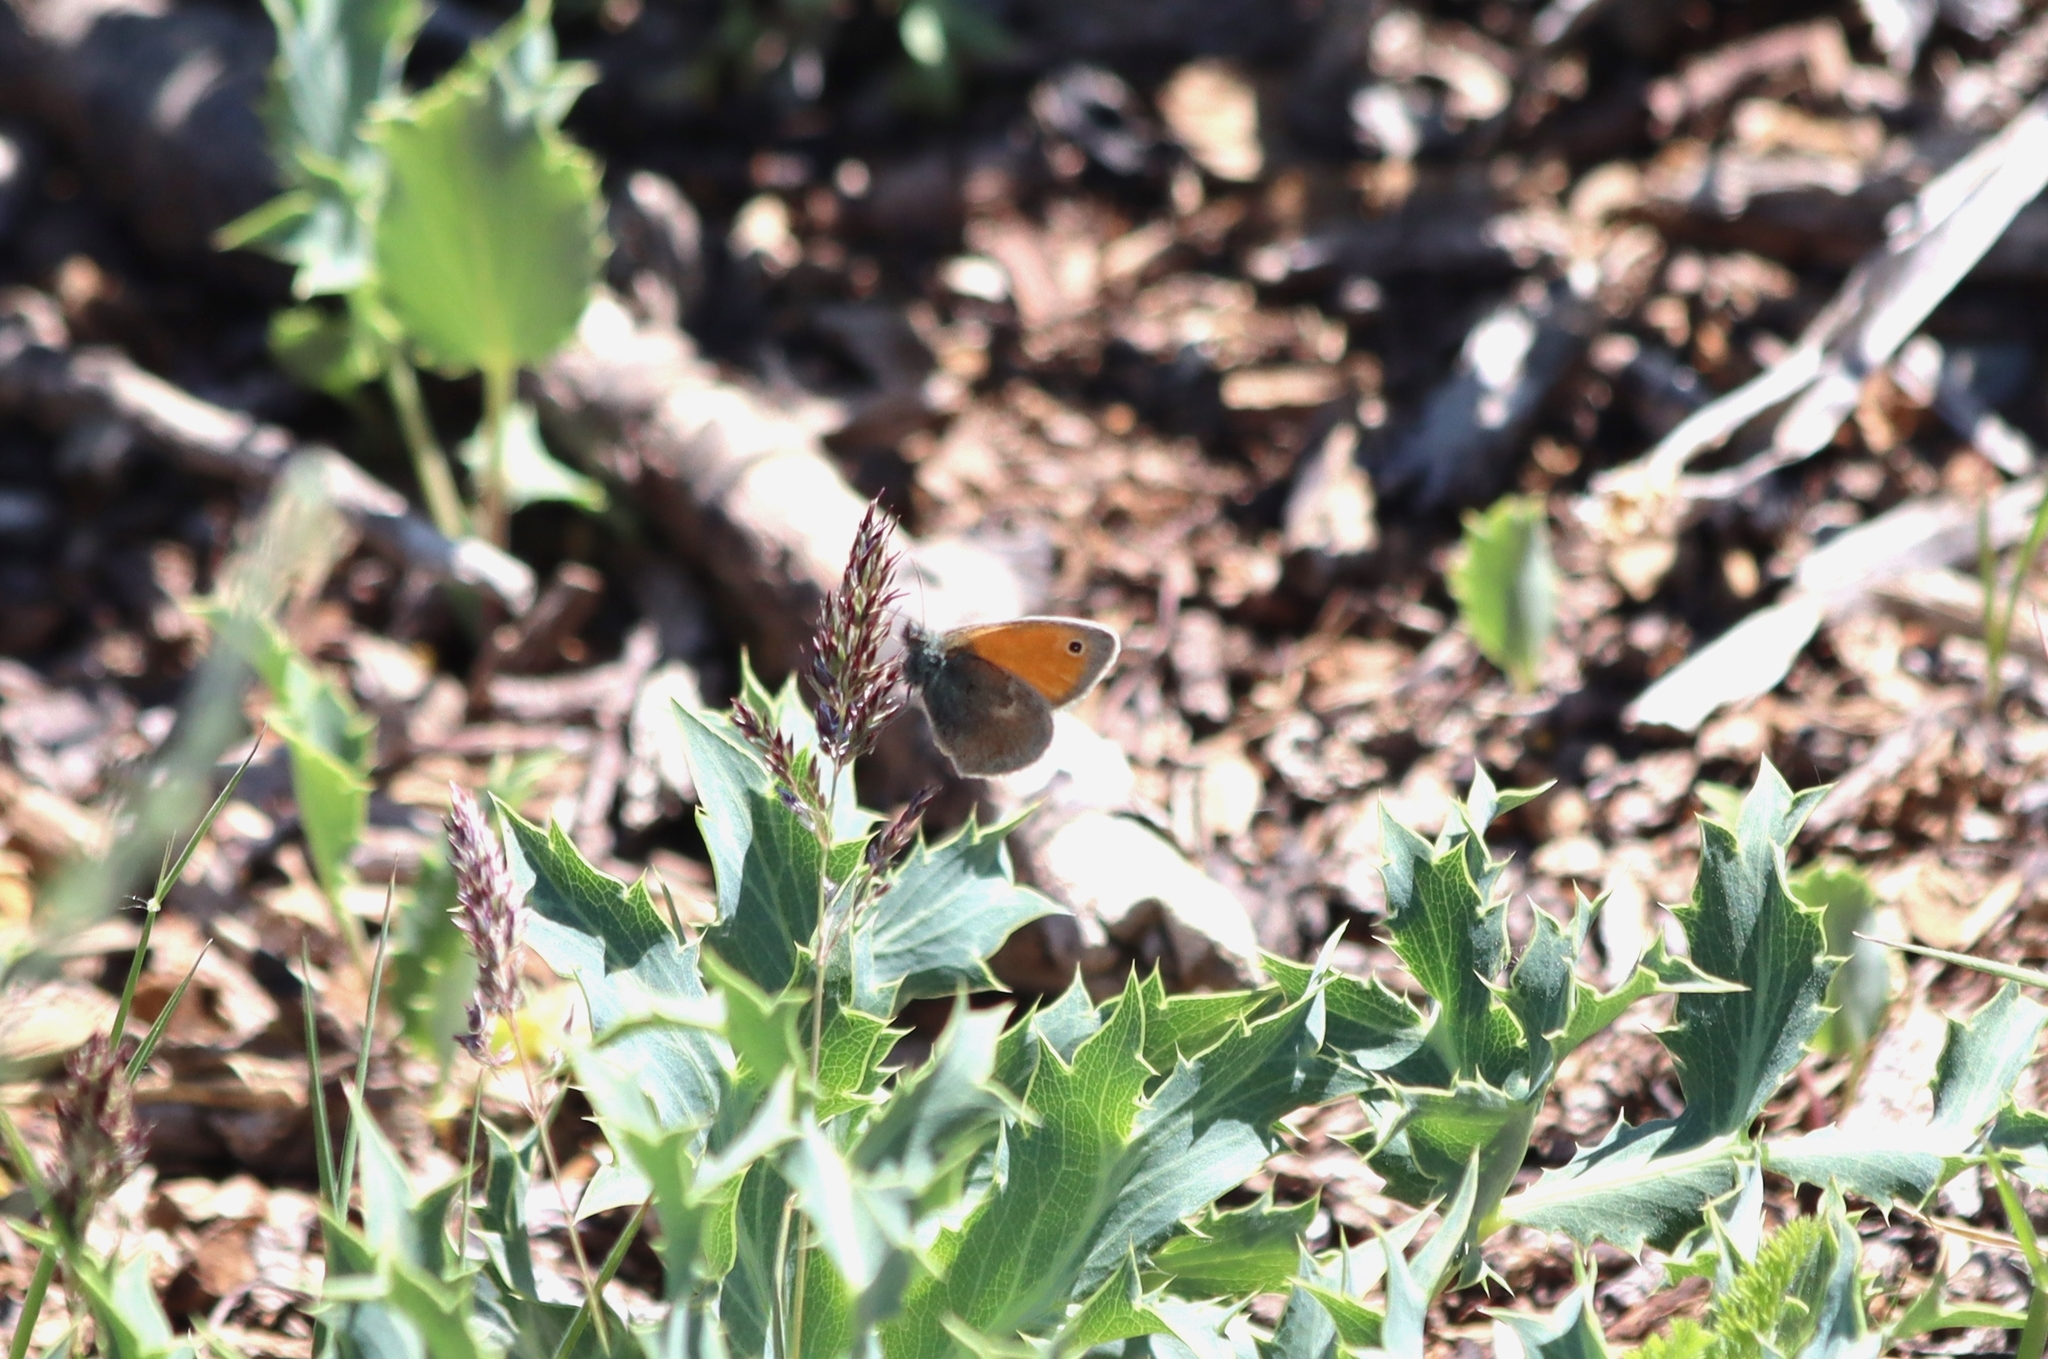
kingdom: Animalia
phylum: Arthropoda
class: Insecta
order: Lepidoptera
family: Nymphalidae
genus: Coenonympha
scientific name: Coenonympha pamphilus
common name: Small heath
